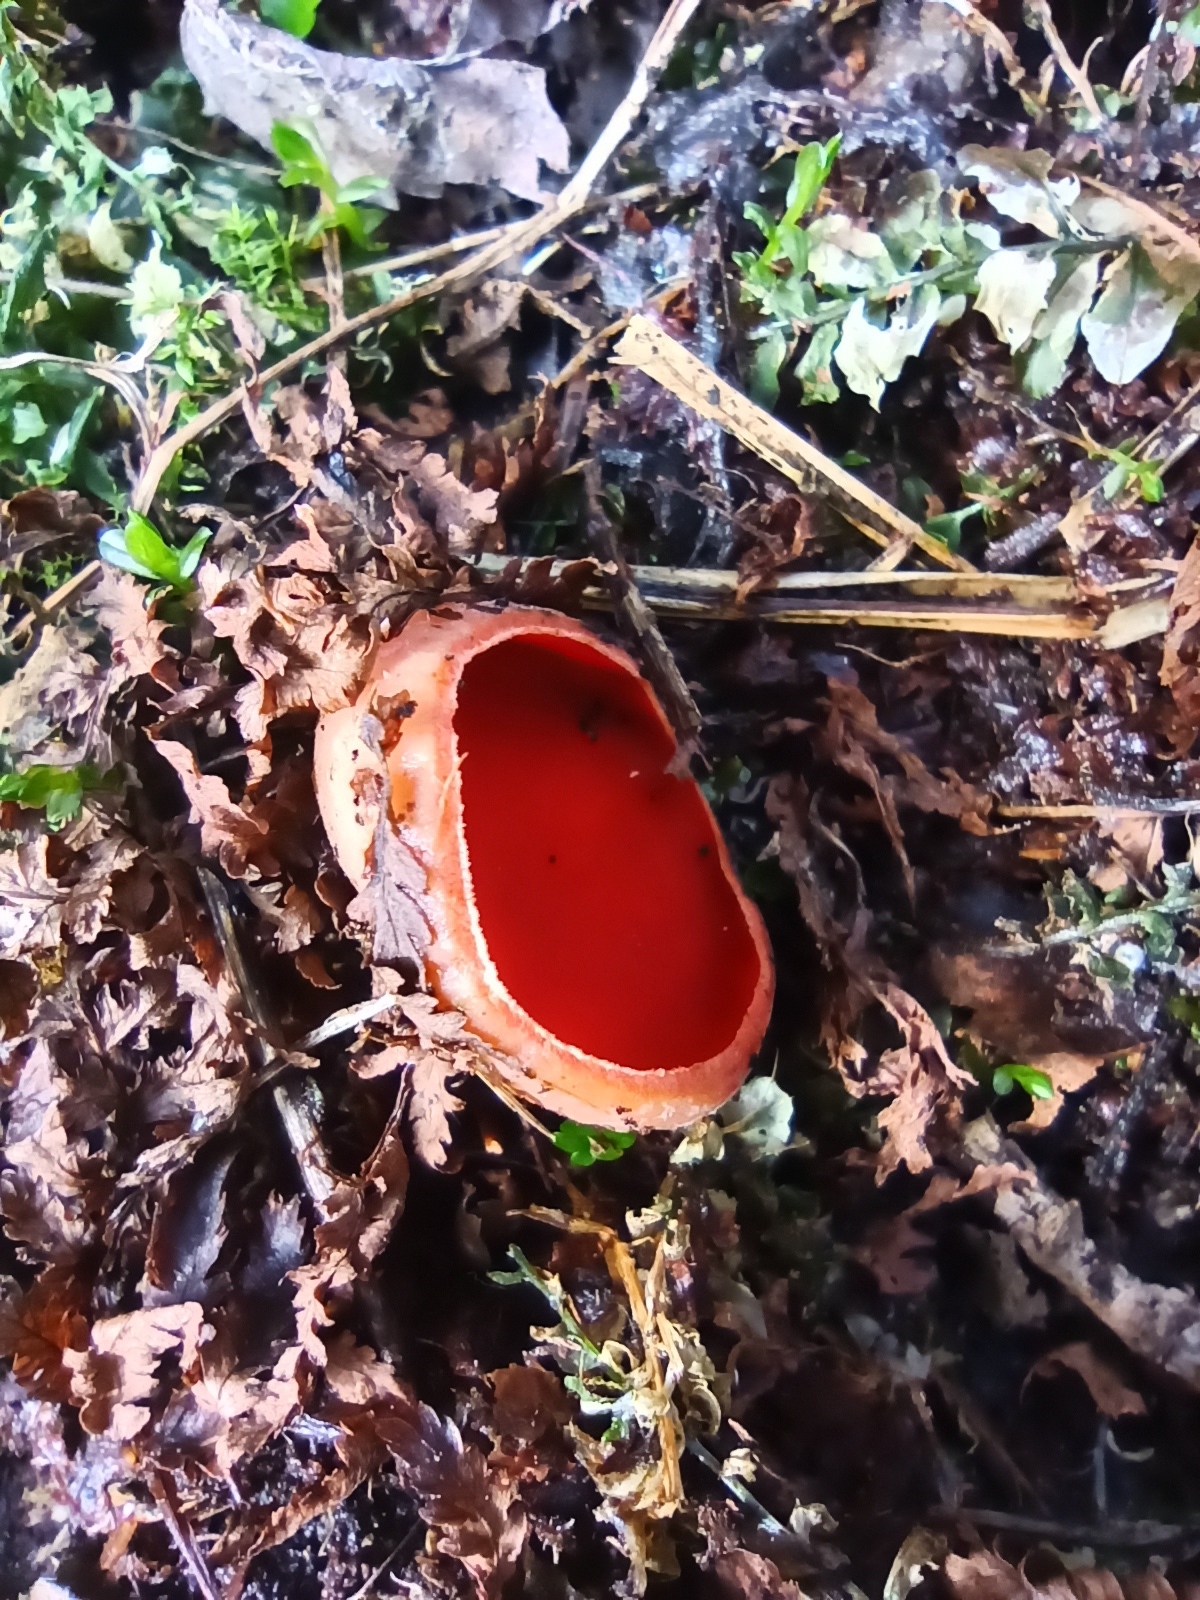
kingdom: Fungi
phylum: Ascomycota
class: Pezizomycetes
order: Pezizales
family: Sarcoscyphaceae
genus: Sarcoscypha
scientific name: Sarcoscypha austriaca
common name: Scarlet elfcup
